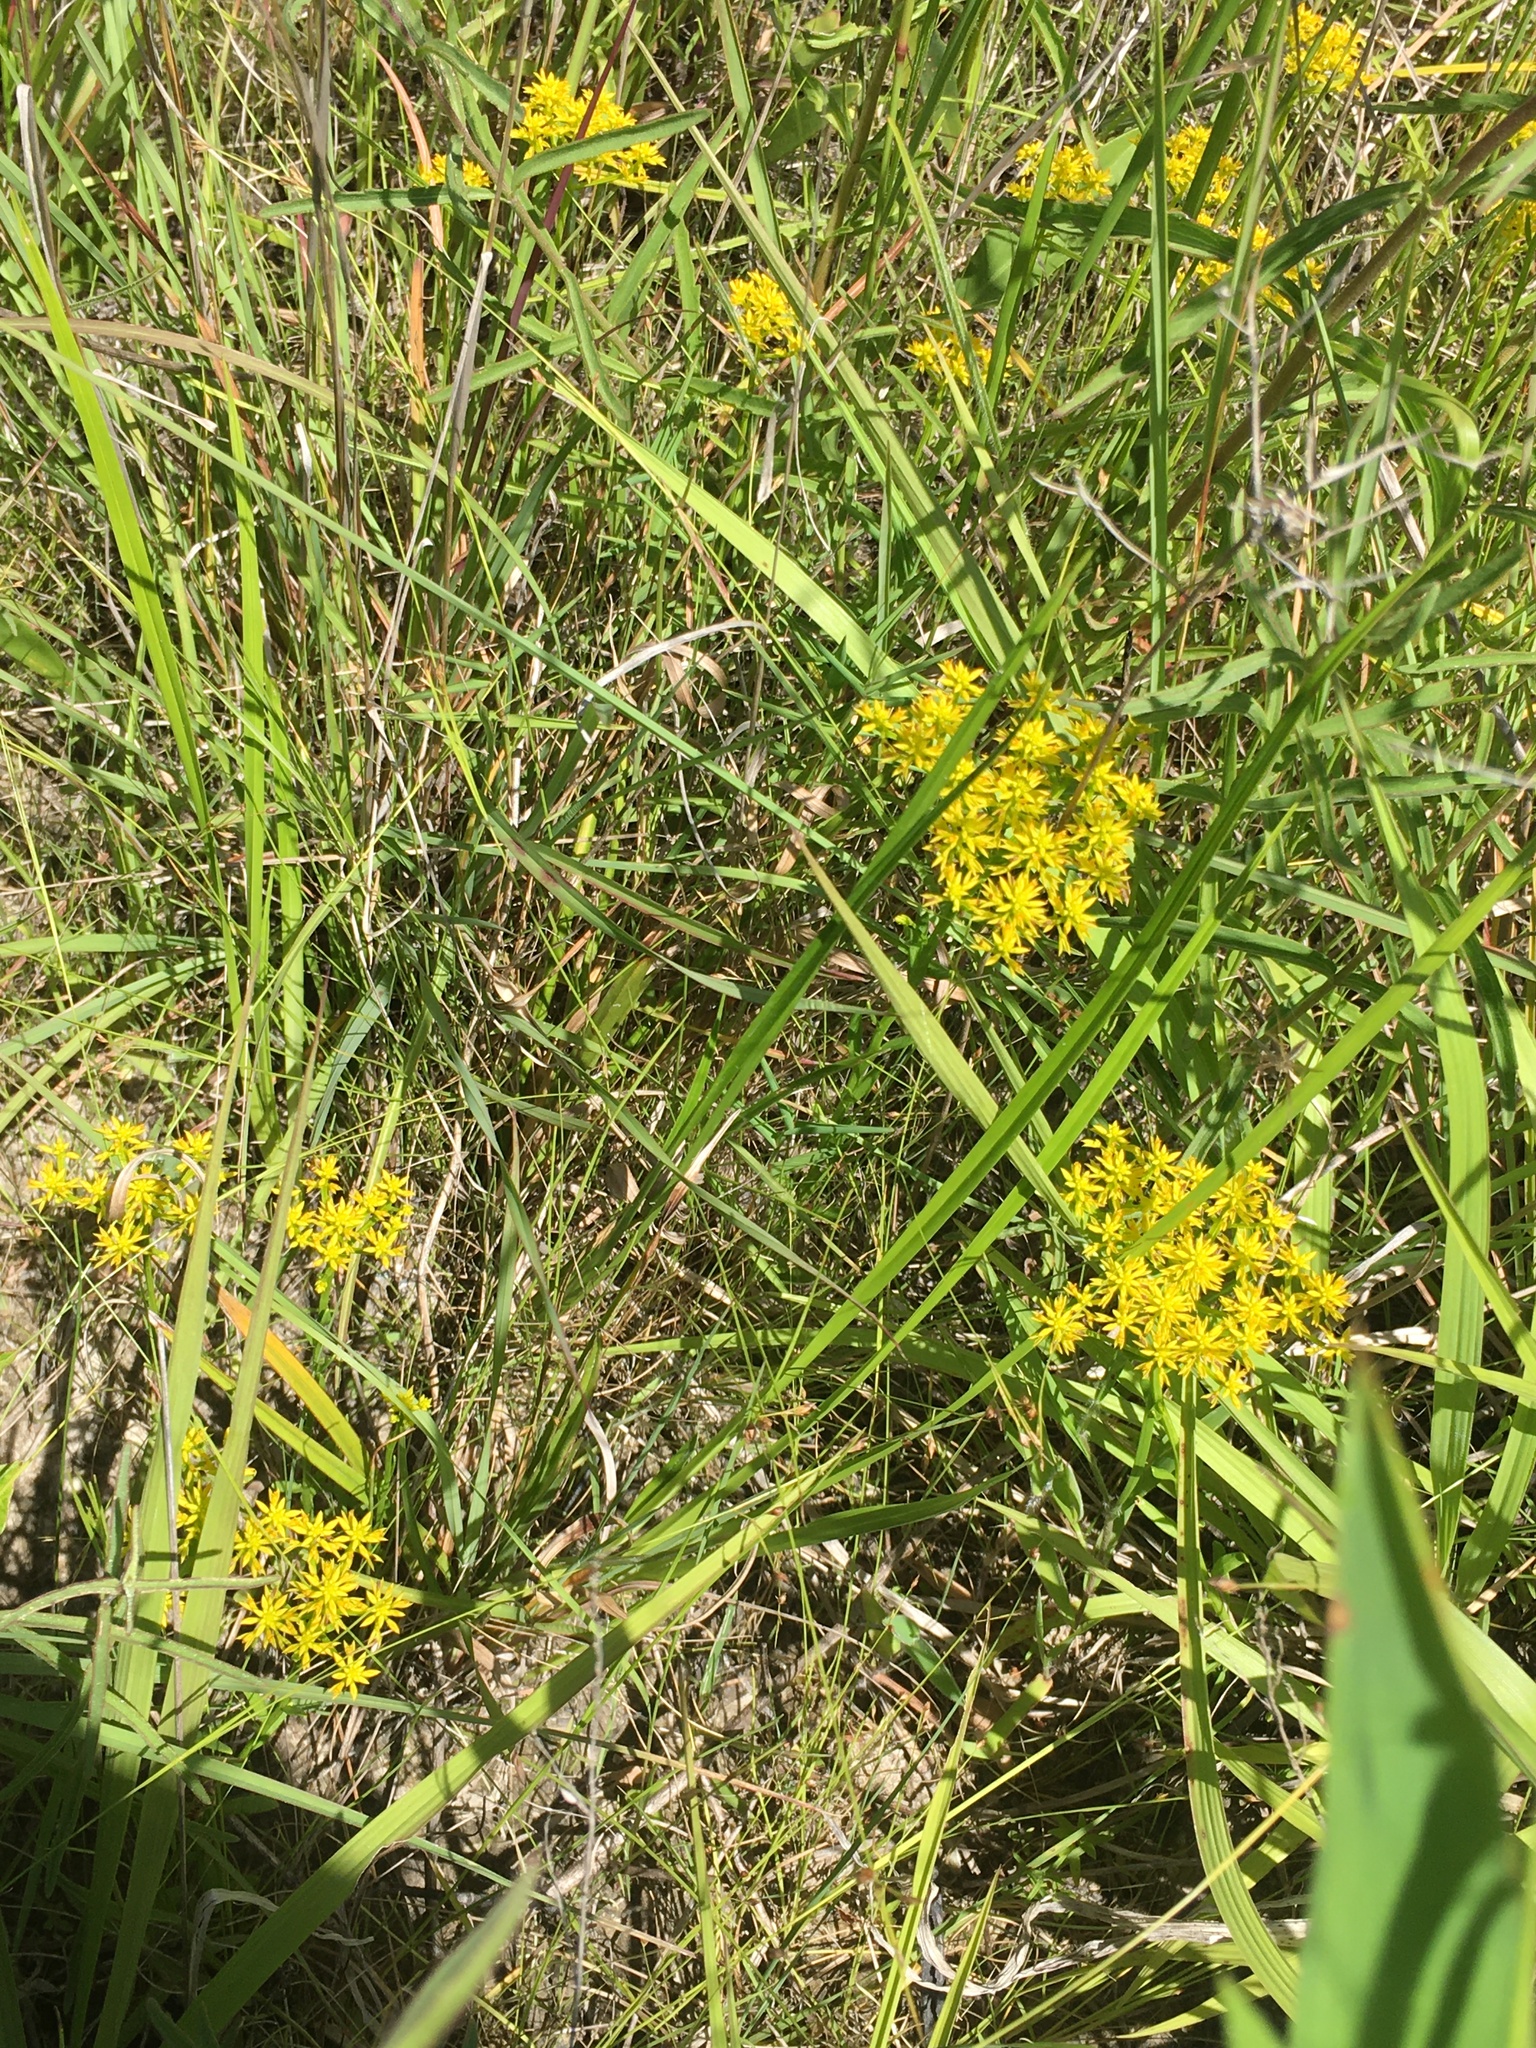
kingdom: Plantae
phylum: Tracheophyta
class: Magnoliopsida
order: Fabales
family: Polygalaceae
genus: Polygala
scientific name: Polygala ramosa
